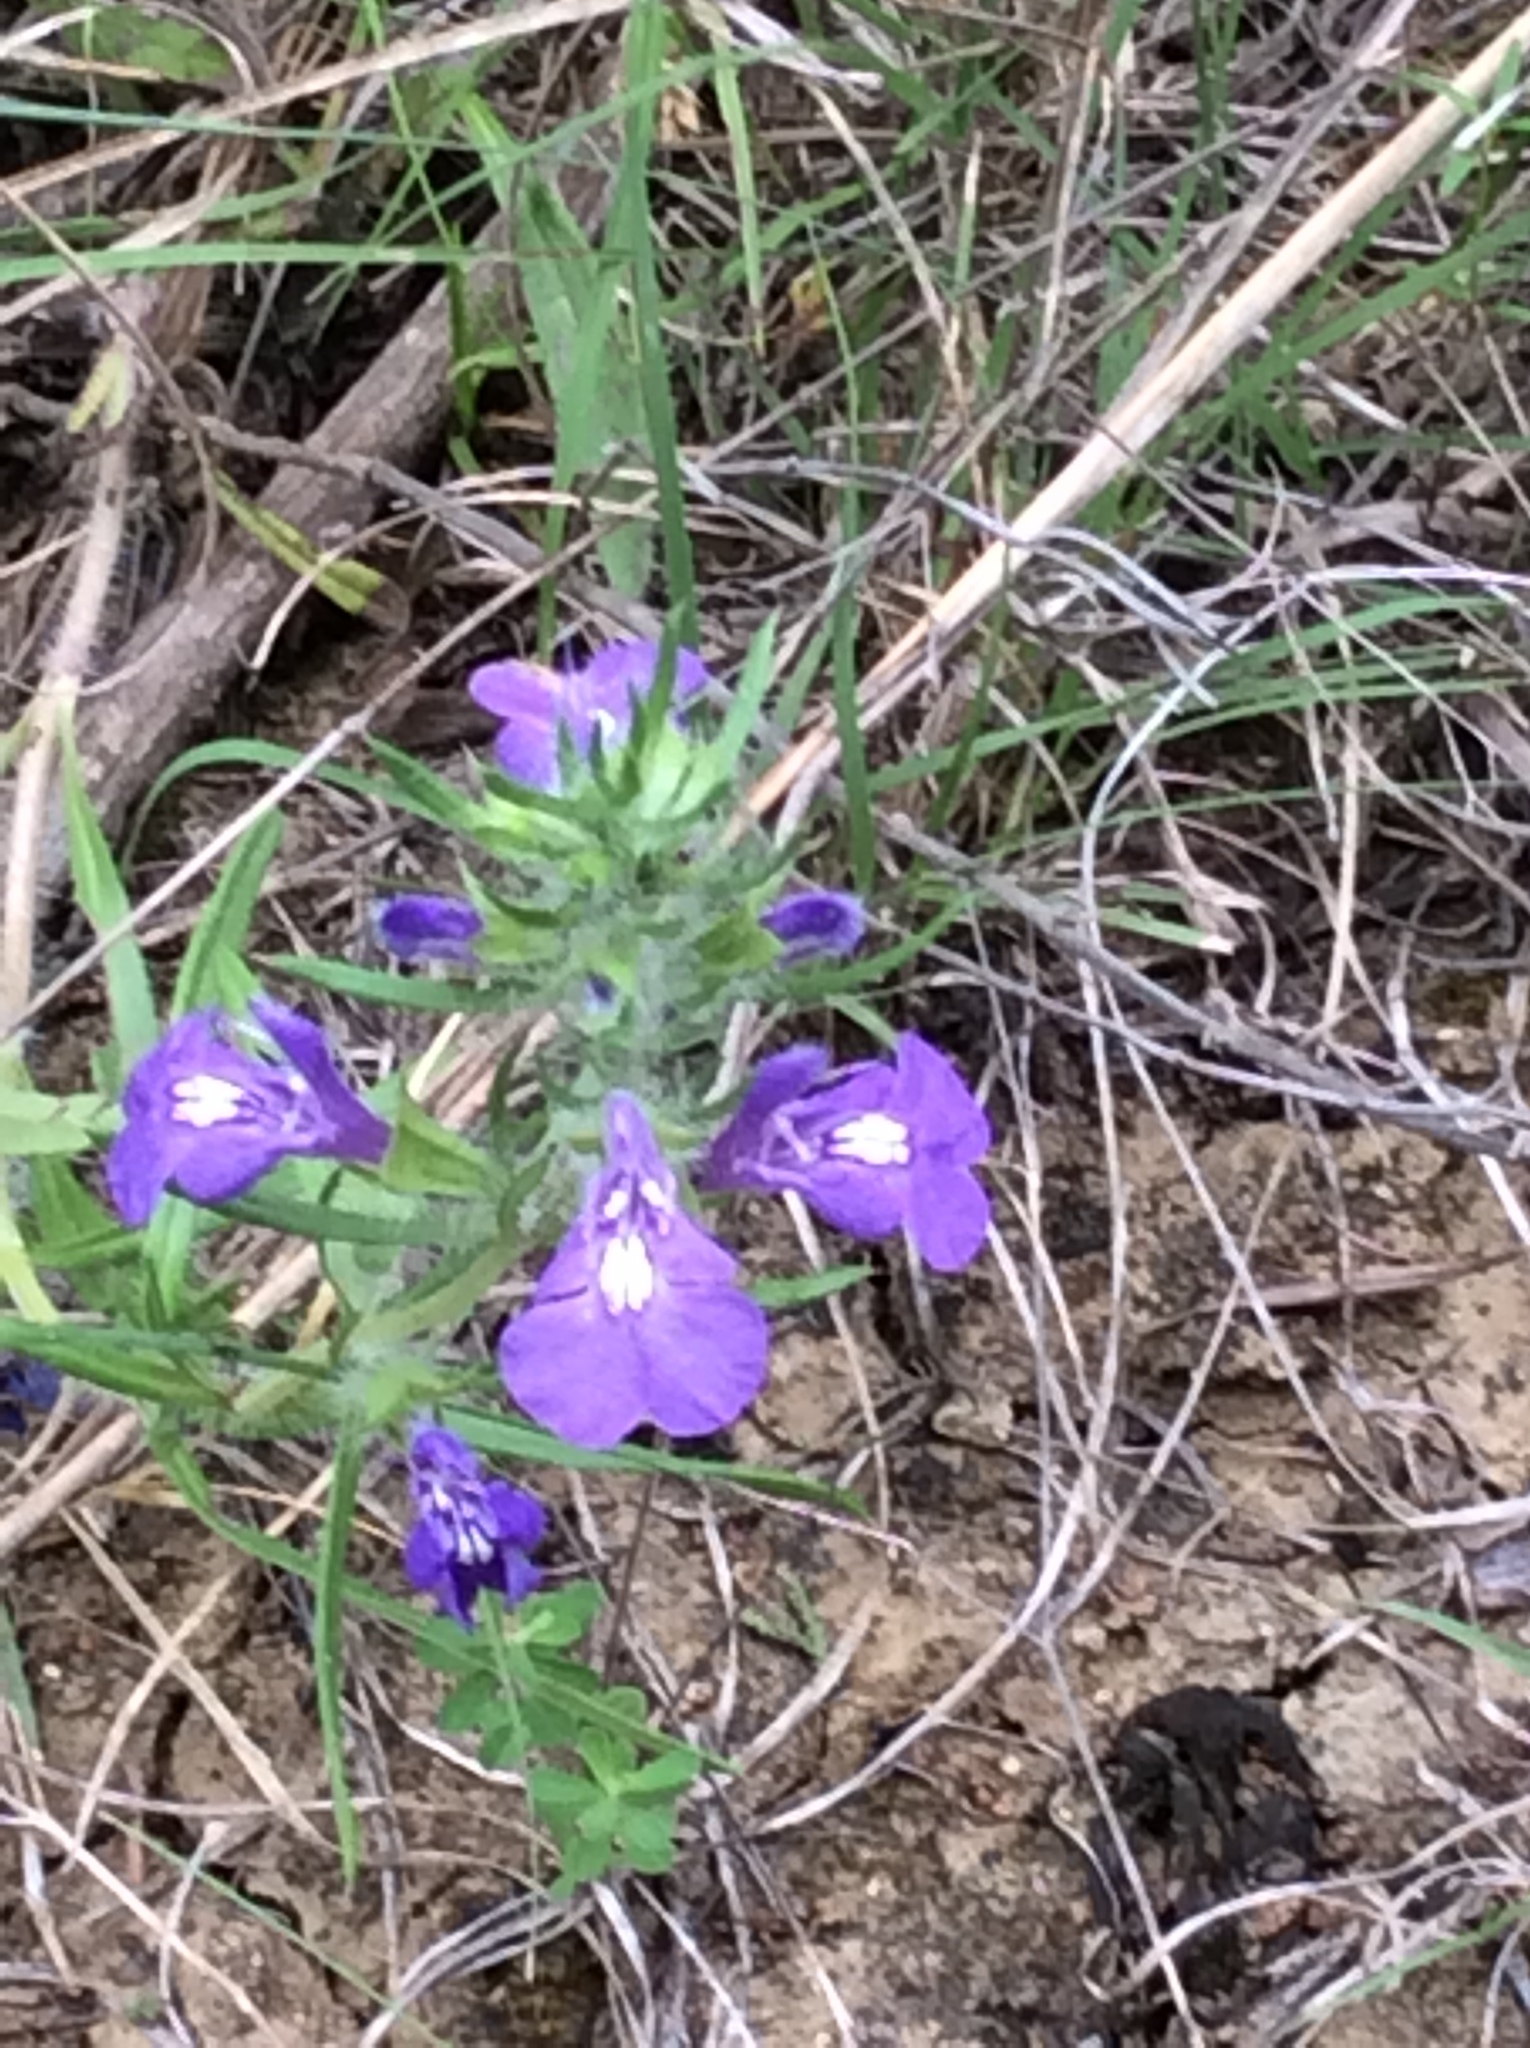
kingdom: Plantae
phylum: Tracheophyta
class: Magnoliopsida
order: Lamiales
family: Lamiaceae
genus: Salvia
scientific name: Salvia texana
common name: Texas sage
